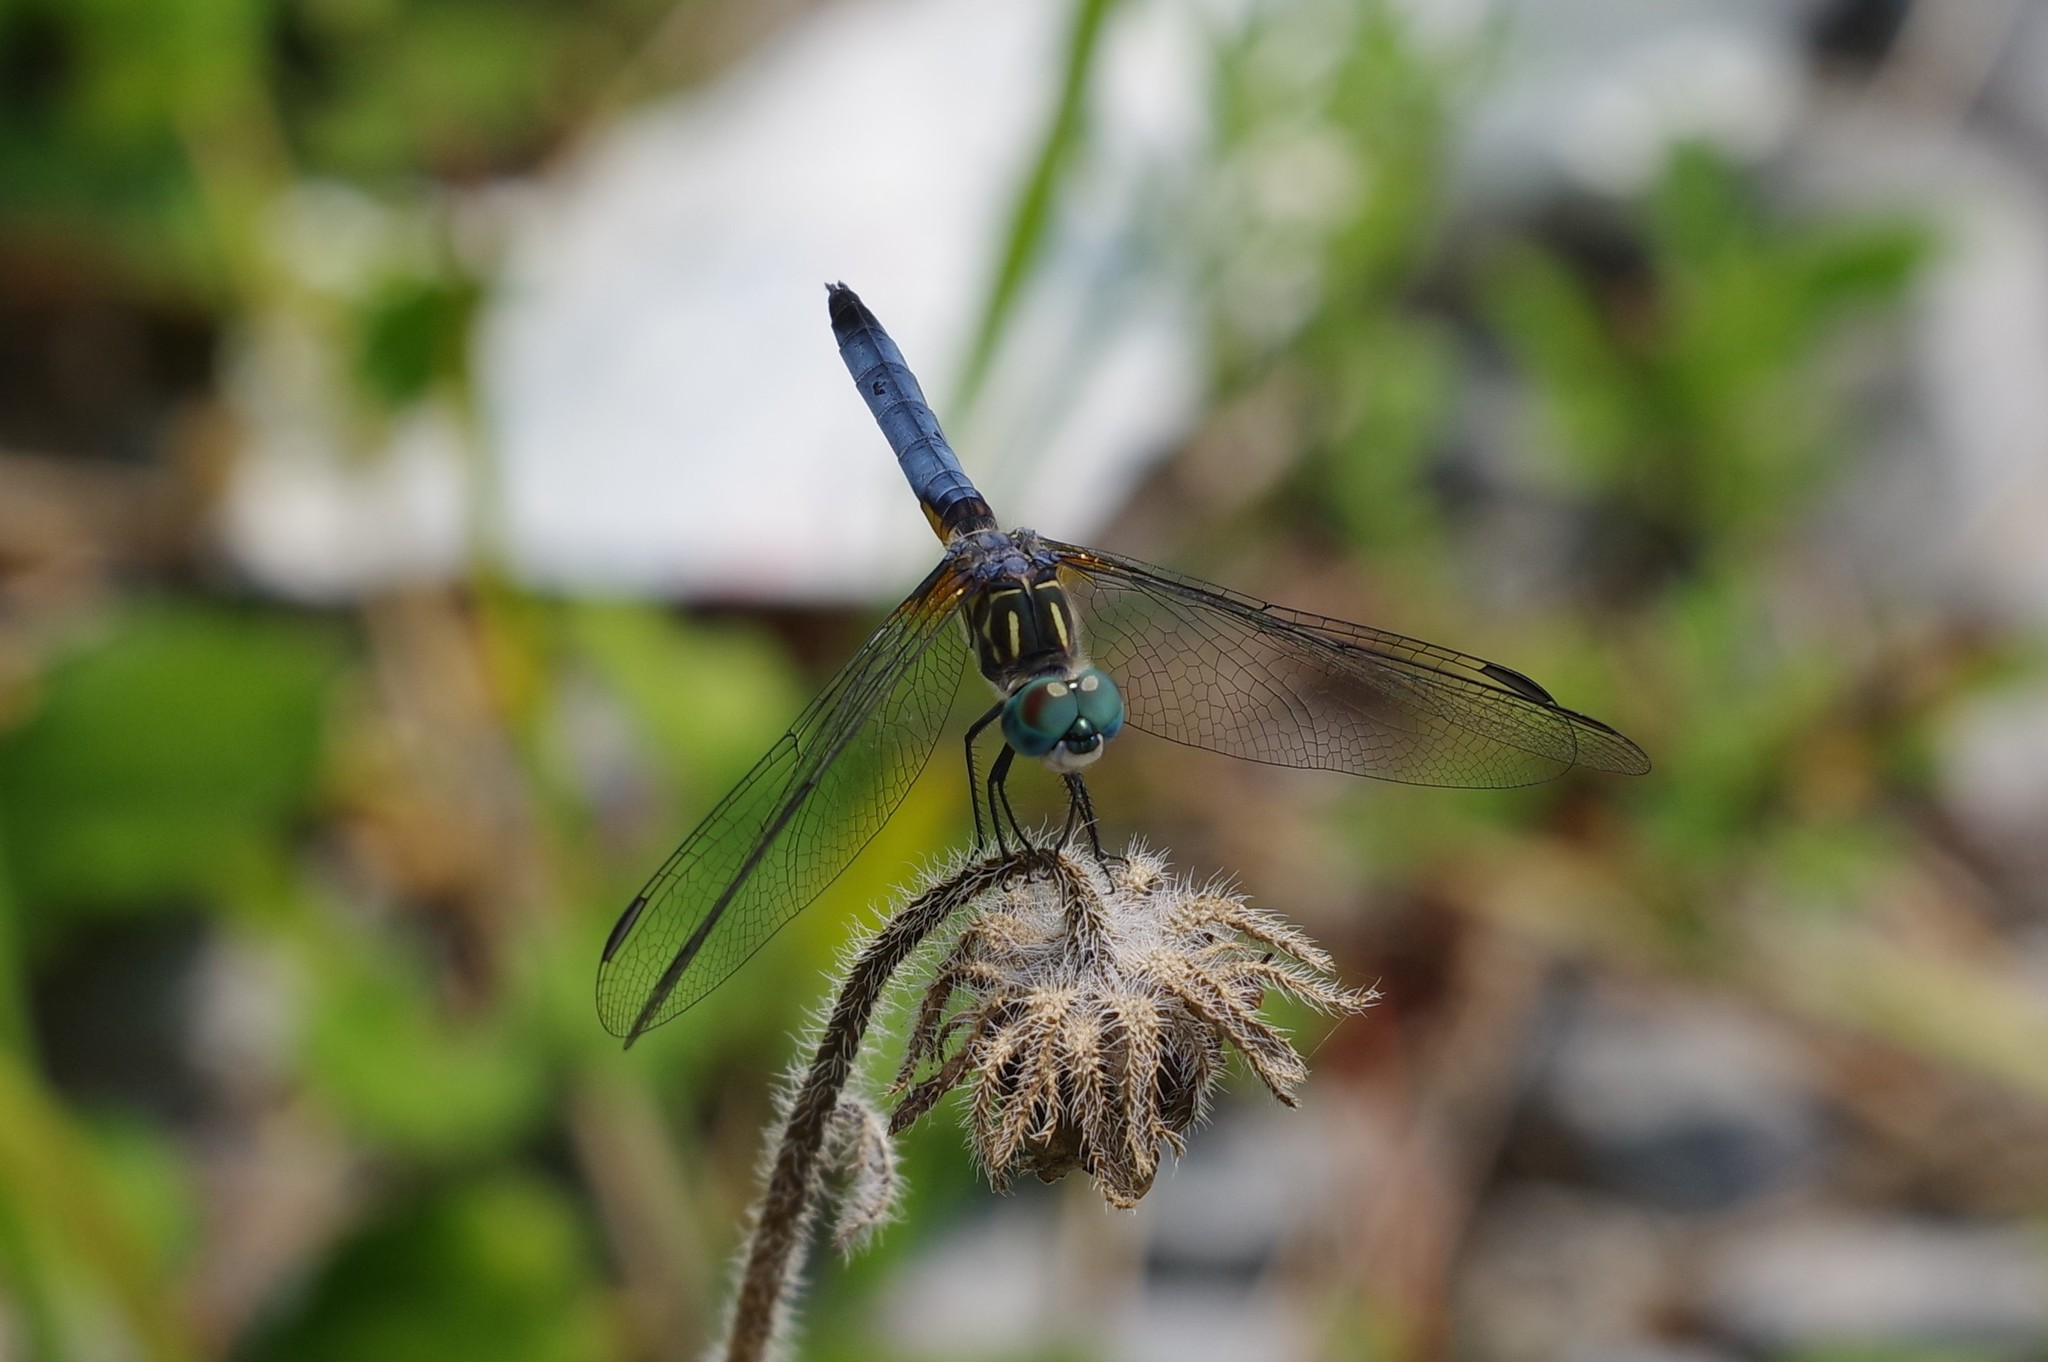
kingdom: Animalia
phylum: Arthropoda
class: Insecta
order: Odonata
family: Libellulidae
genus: Pachydiplax
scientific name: Pachydiplax longipennis
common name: Blue dasher
